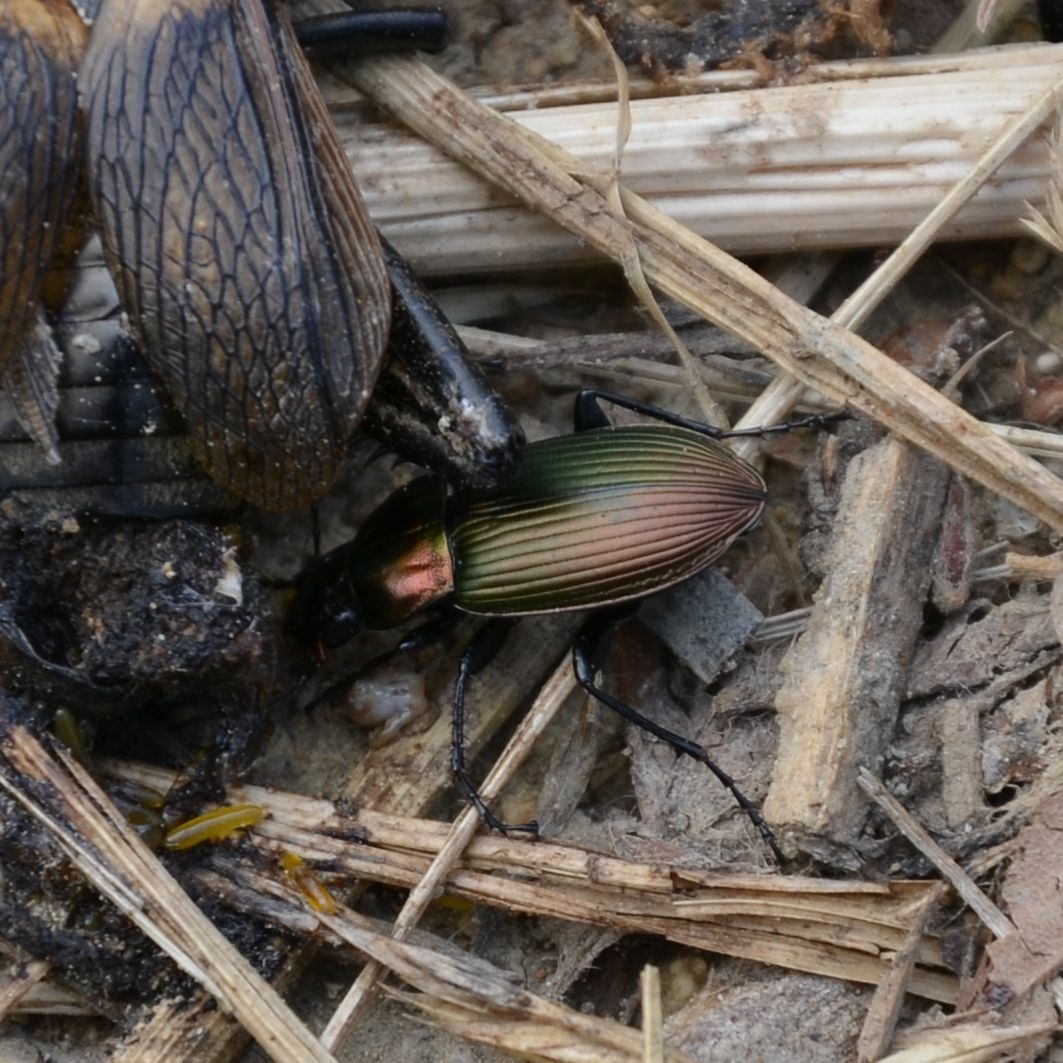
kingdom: Animalia
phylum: Arthropoda
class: Insecta
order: Coleoptera
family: Carabidae
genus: Poecilus
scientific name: Poecilus cupreus
